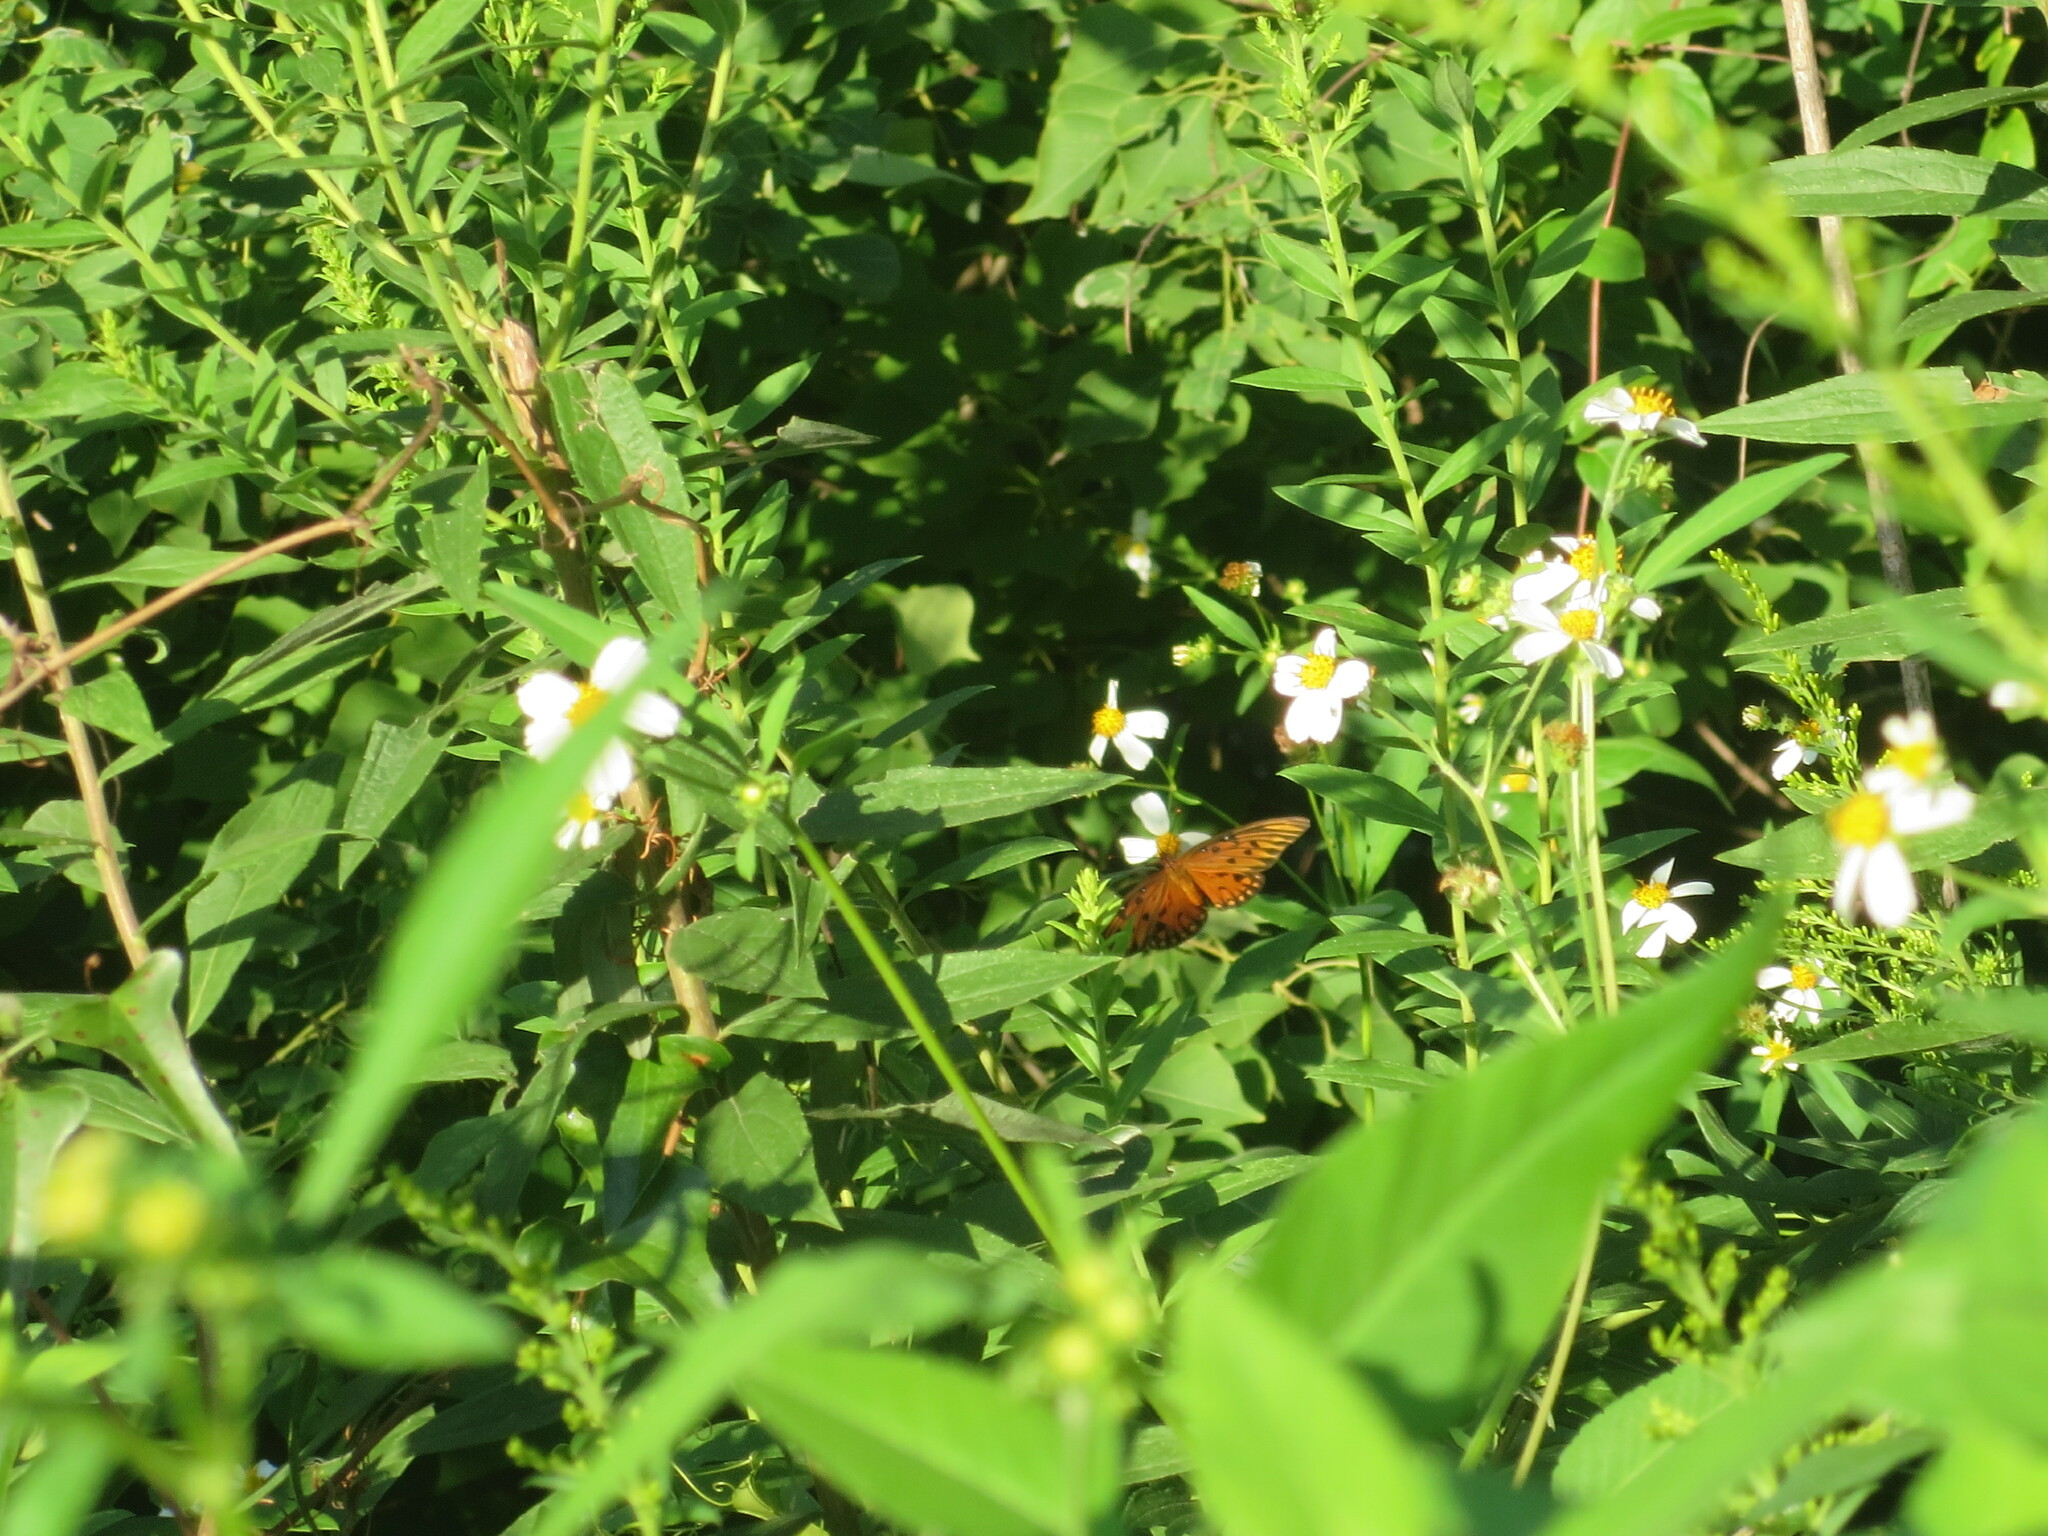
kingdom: Animalia
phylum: Arthropoda
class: Insecta
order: Lepidoptera
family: Nymphalidae
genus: Dione
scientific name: Dione vanillae
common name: Gulf fritillary
